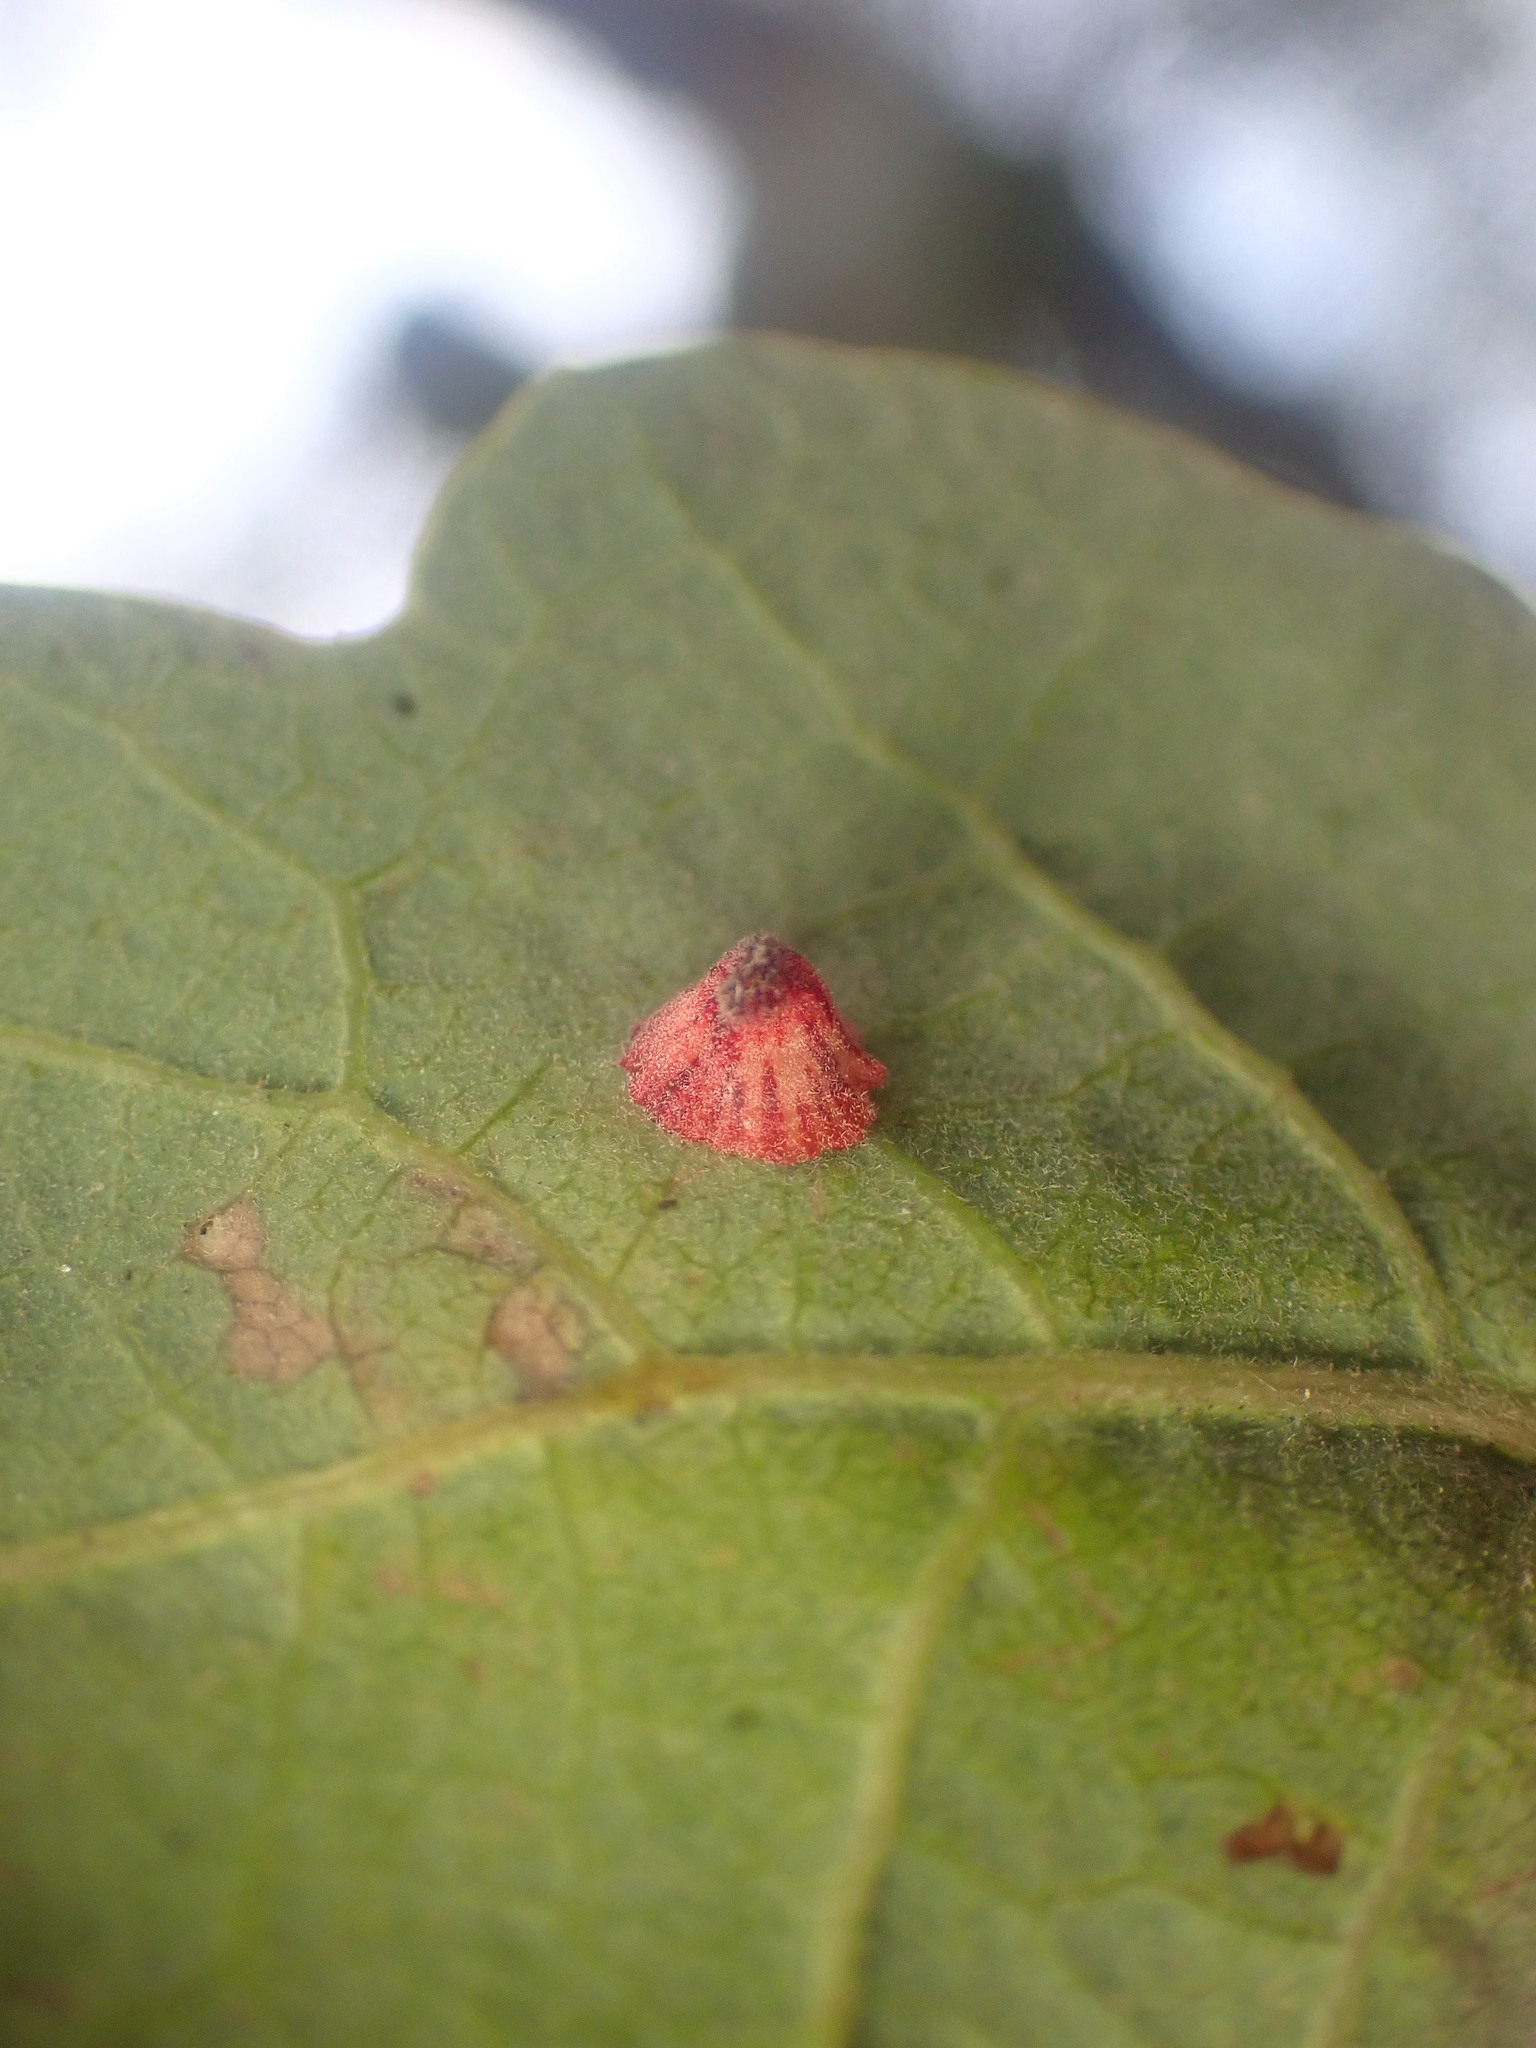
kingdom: Animalia
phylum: Arthropoda
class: Insecta
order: Hymenoptera
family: Cynipidae
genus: Andricus
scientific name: Andricus
